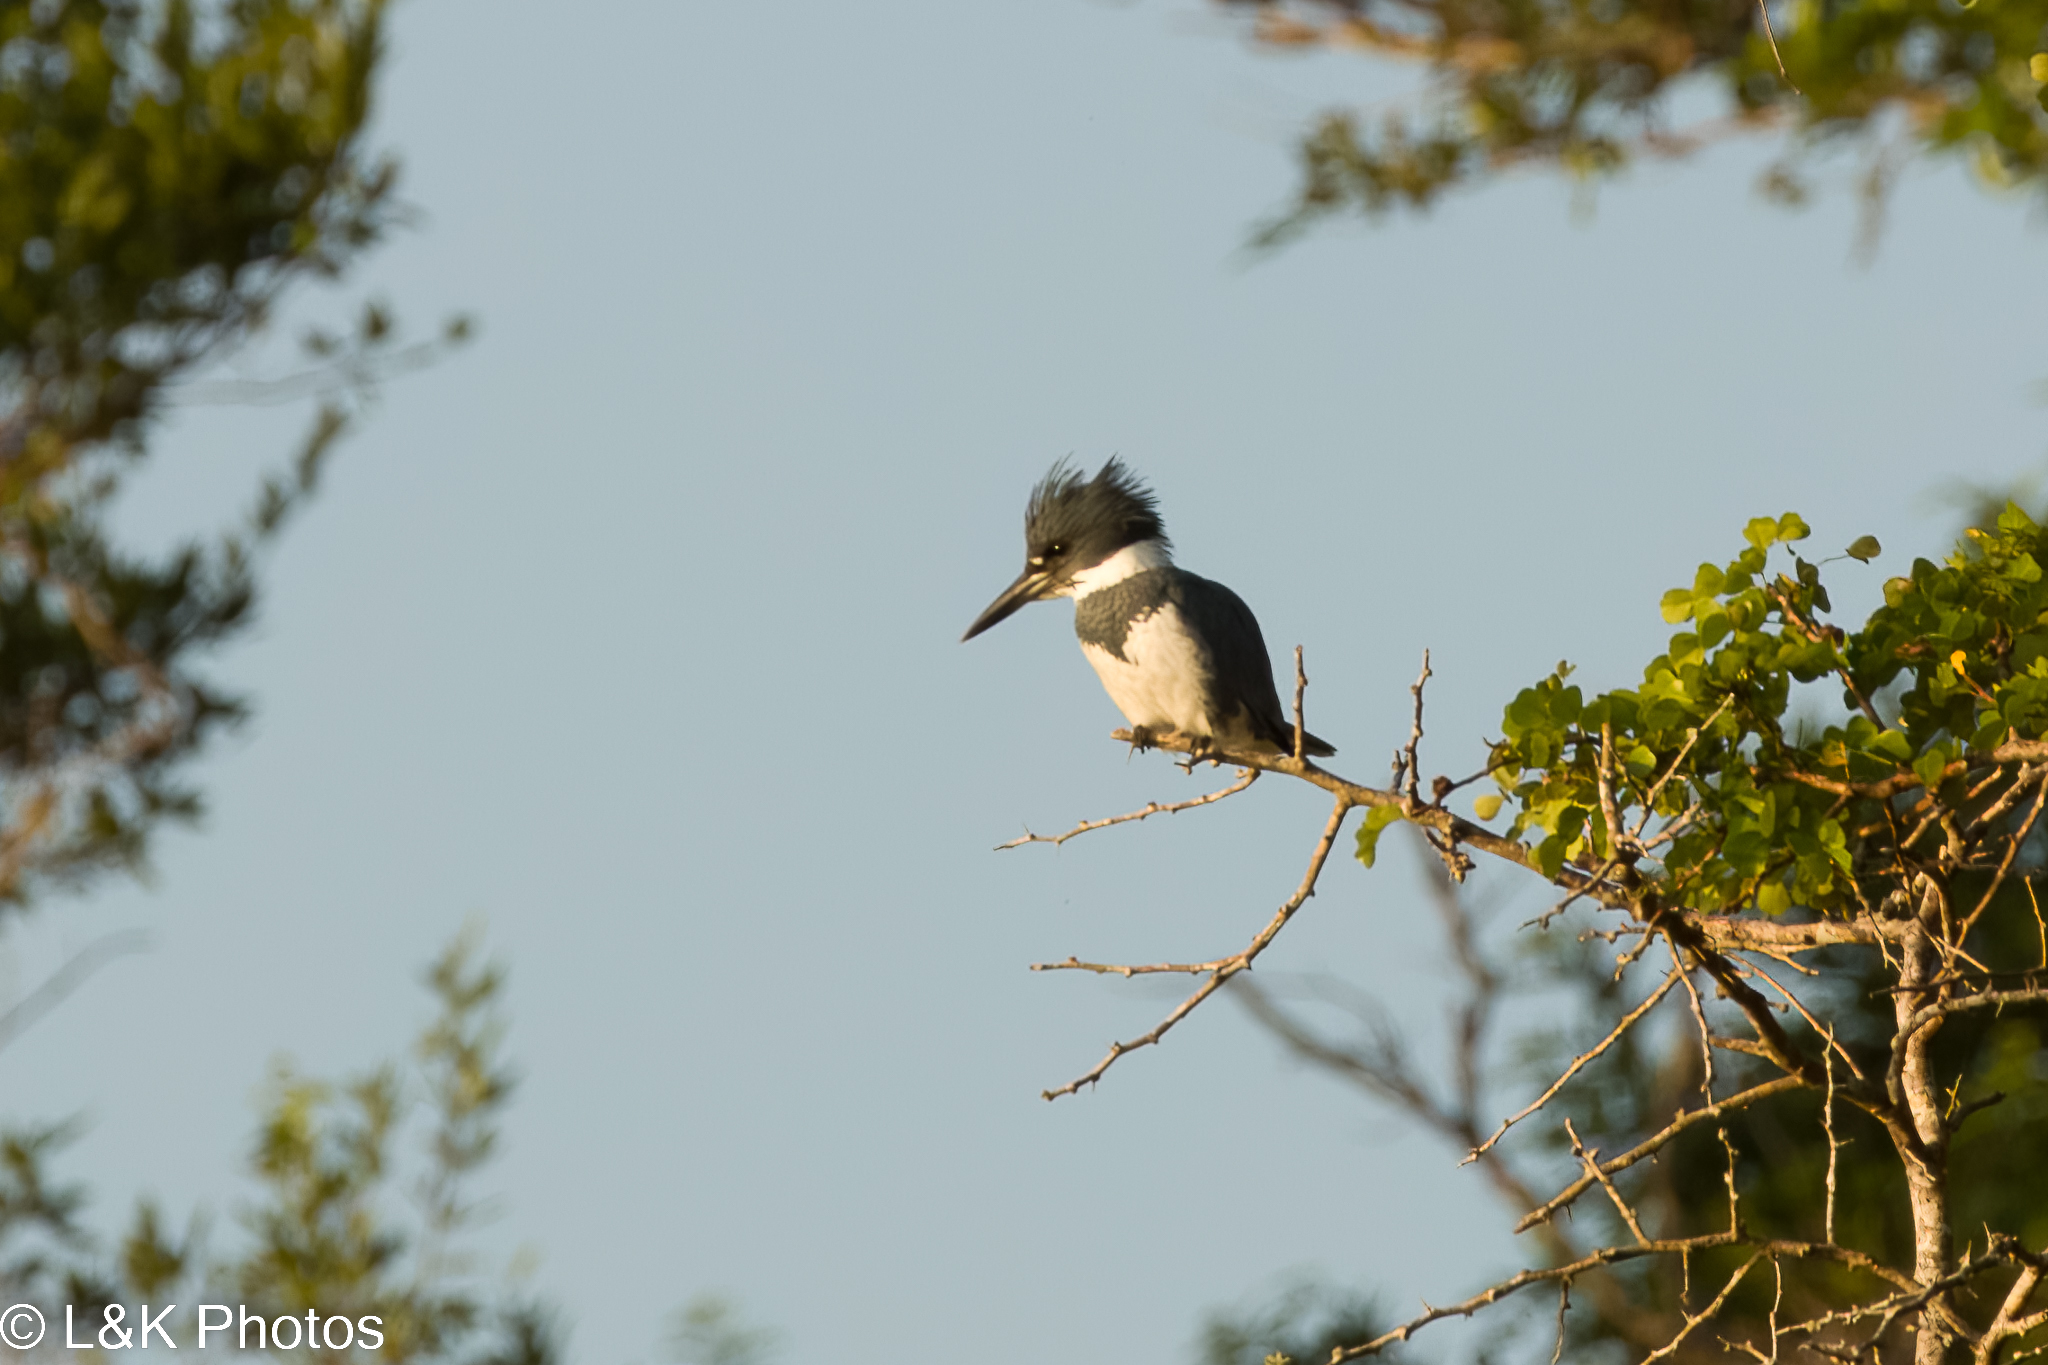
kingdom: Animalia
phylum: Chordata
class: Aves
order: Coraciiformes
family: Alcedinidae
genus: Megaceryle
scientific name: Megaceryle alcyon
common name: Belted kingfisher
